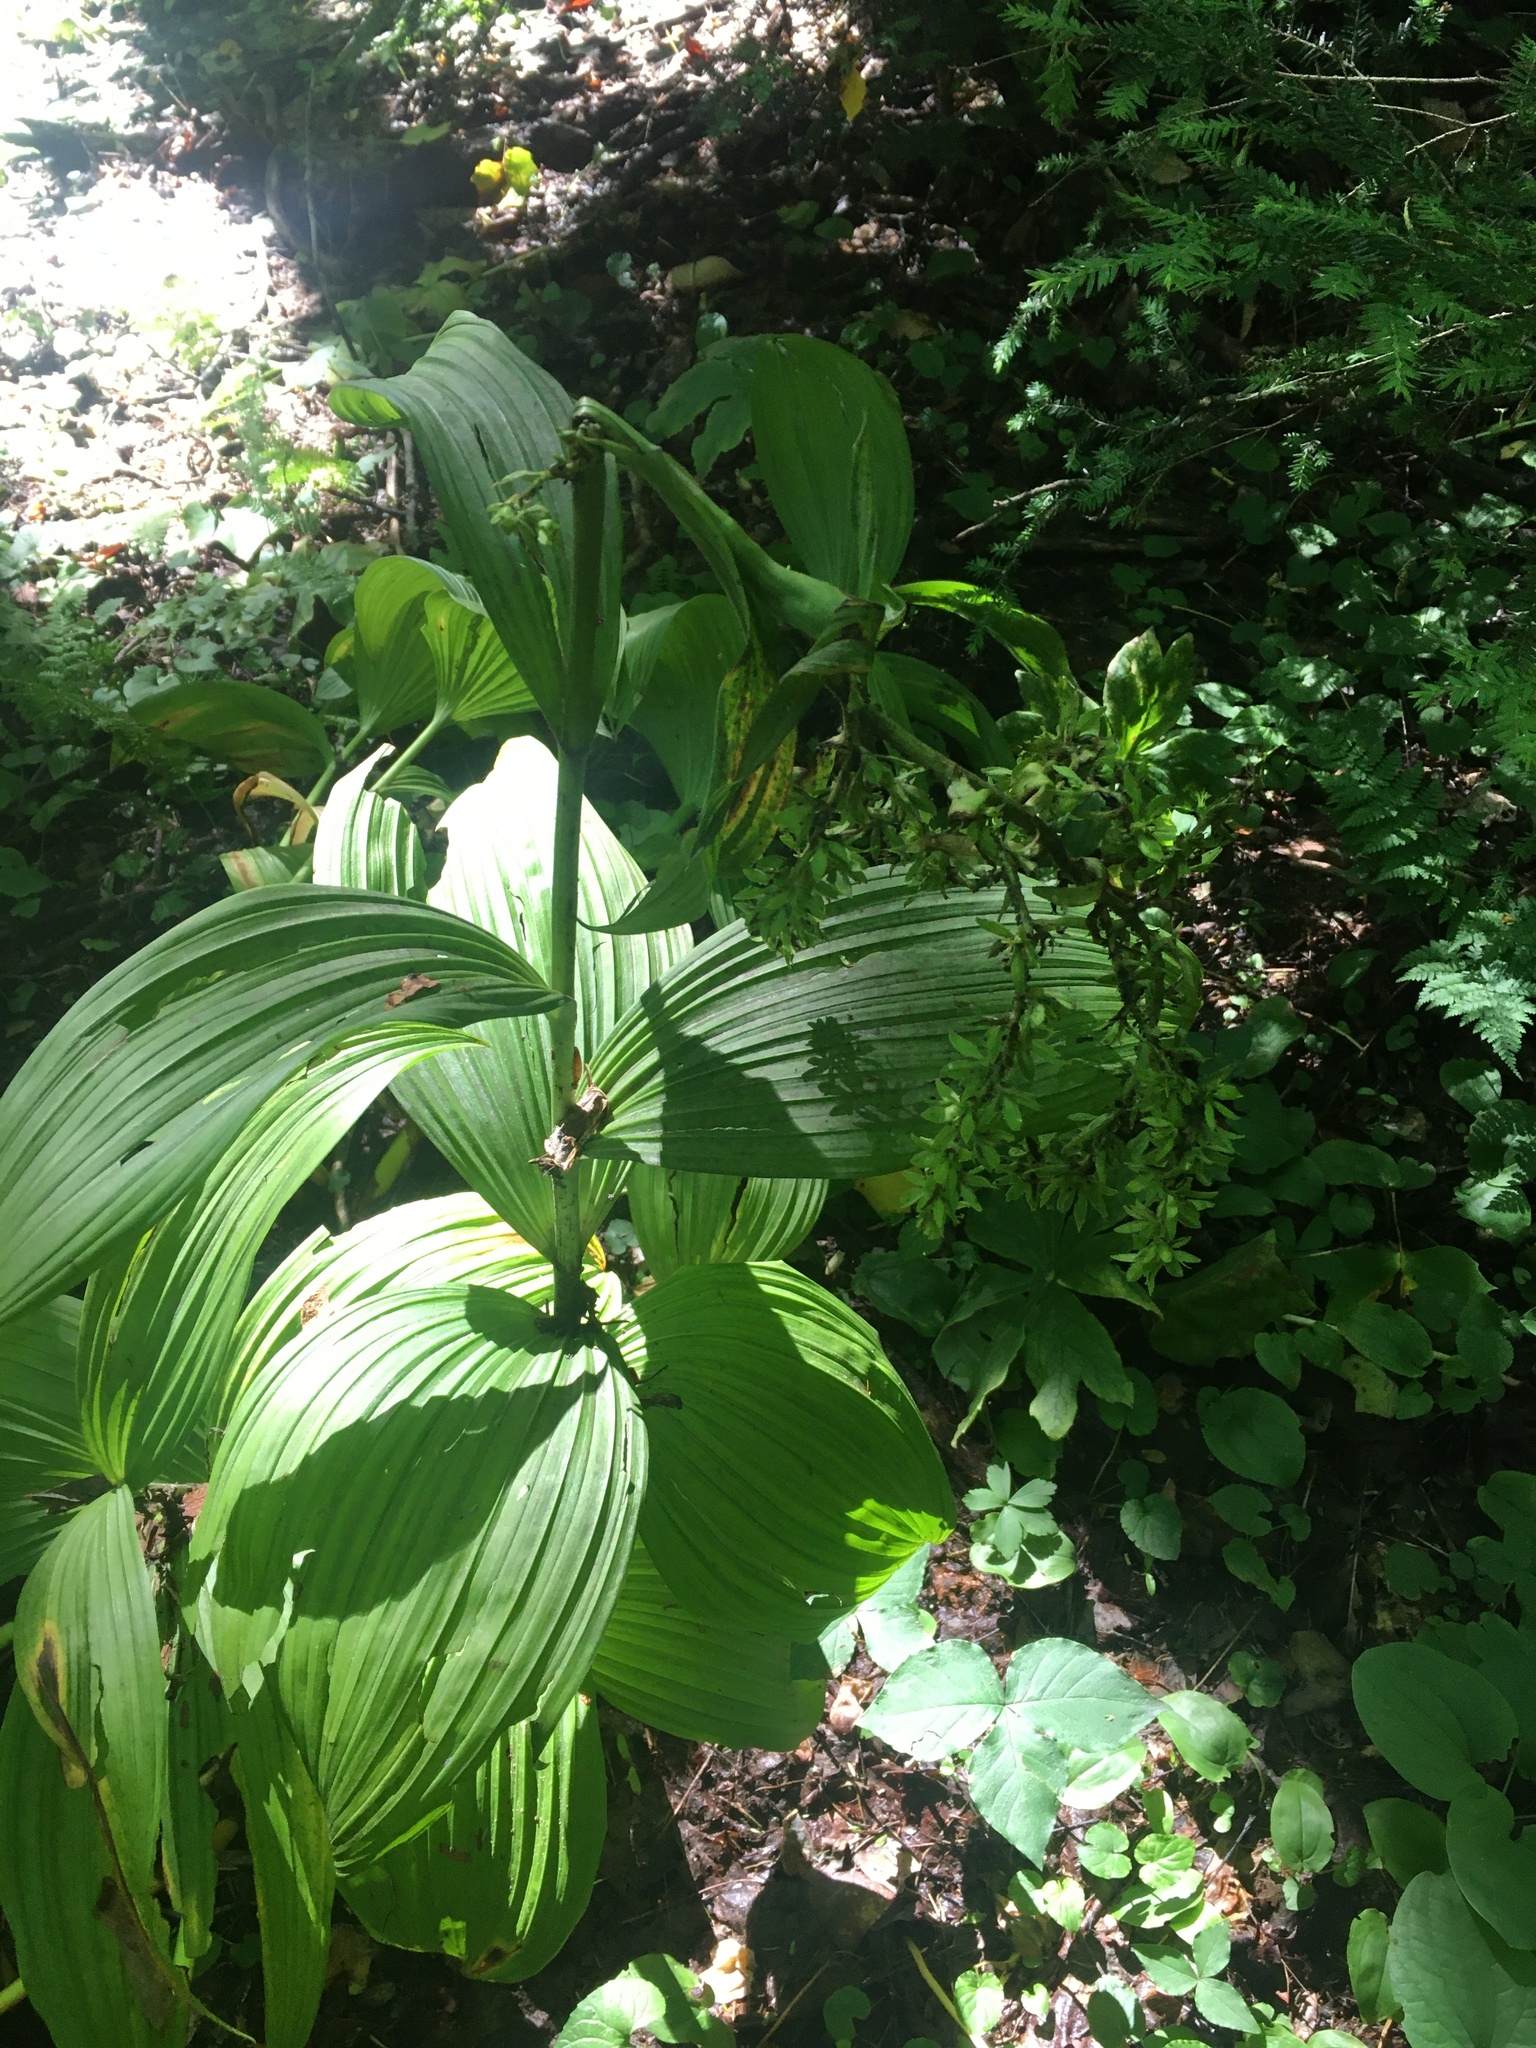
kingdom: Plantae
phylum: Tracheophyta
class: Liliopsida
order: Liliales
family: Melanthiaceae
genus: Veratrum
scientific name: Veratrum viride
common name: American false hellebore
